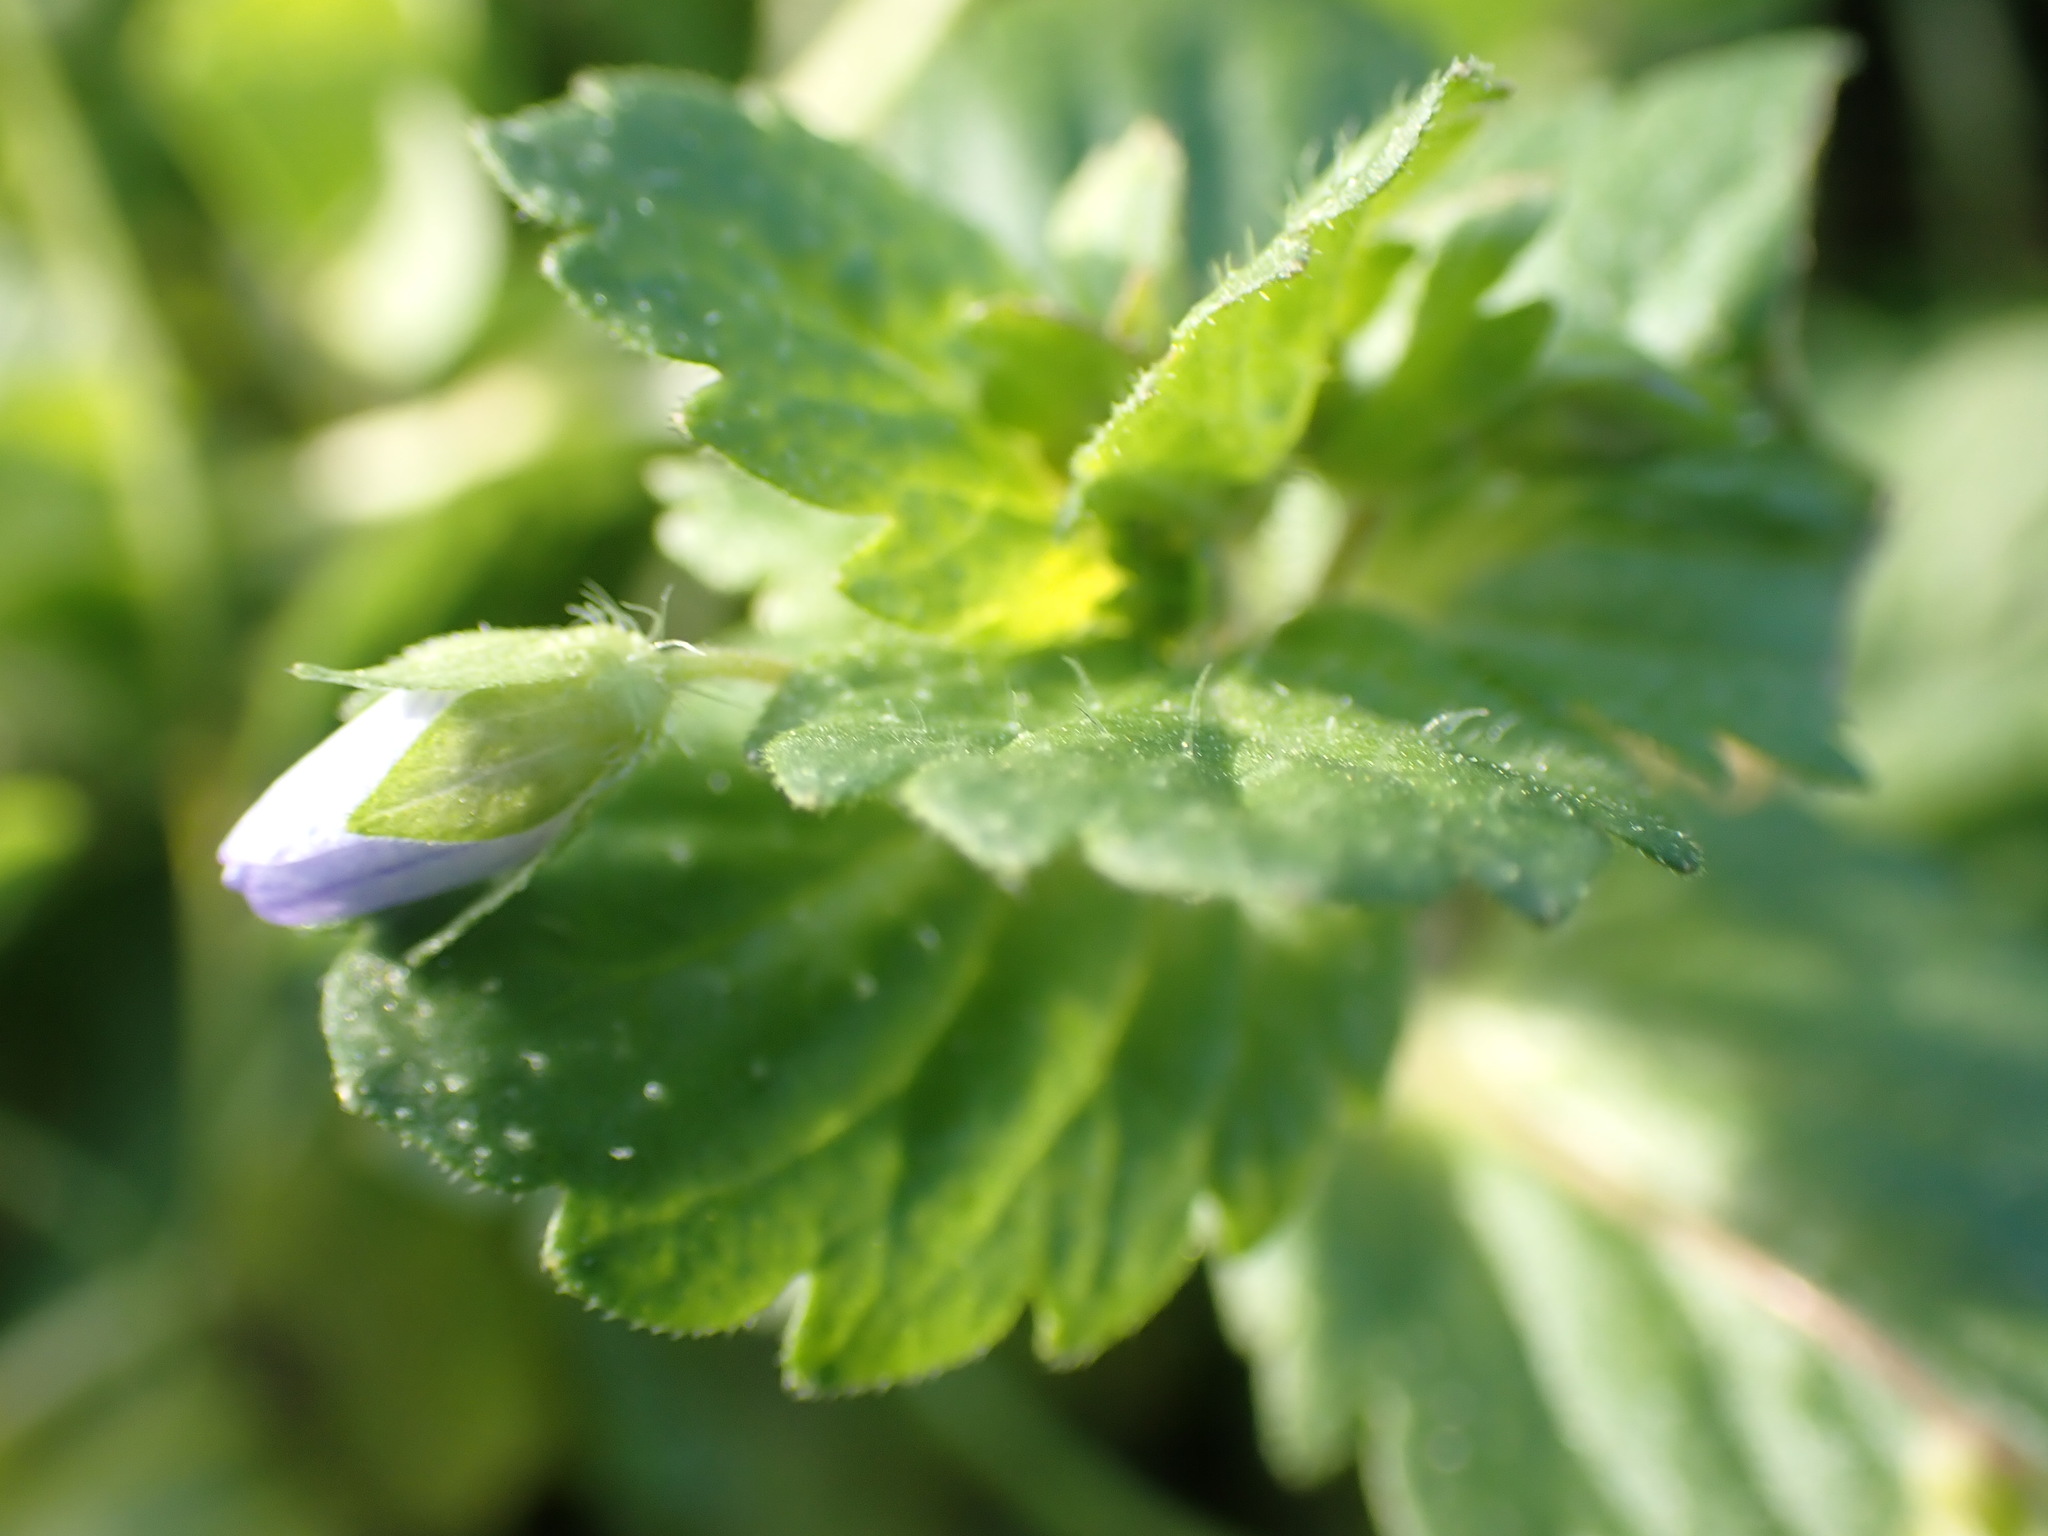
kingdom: Plantae
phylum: Tracheophyta
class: Magnoliopsida
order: Lamiales
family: Plantaginaceae
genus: Veronica
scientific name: Veronica persica
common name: Common field-speedwell
